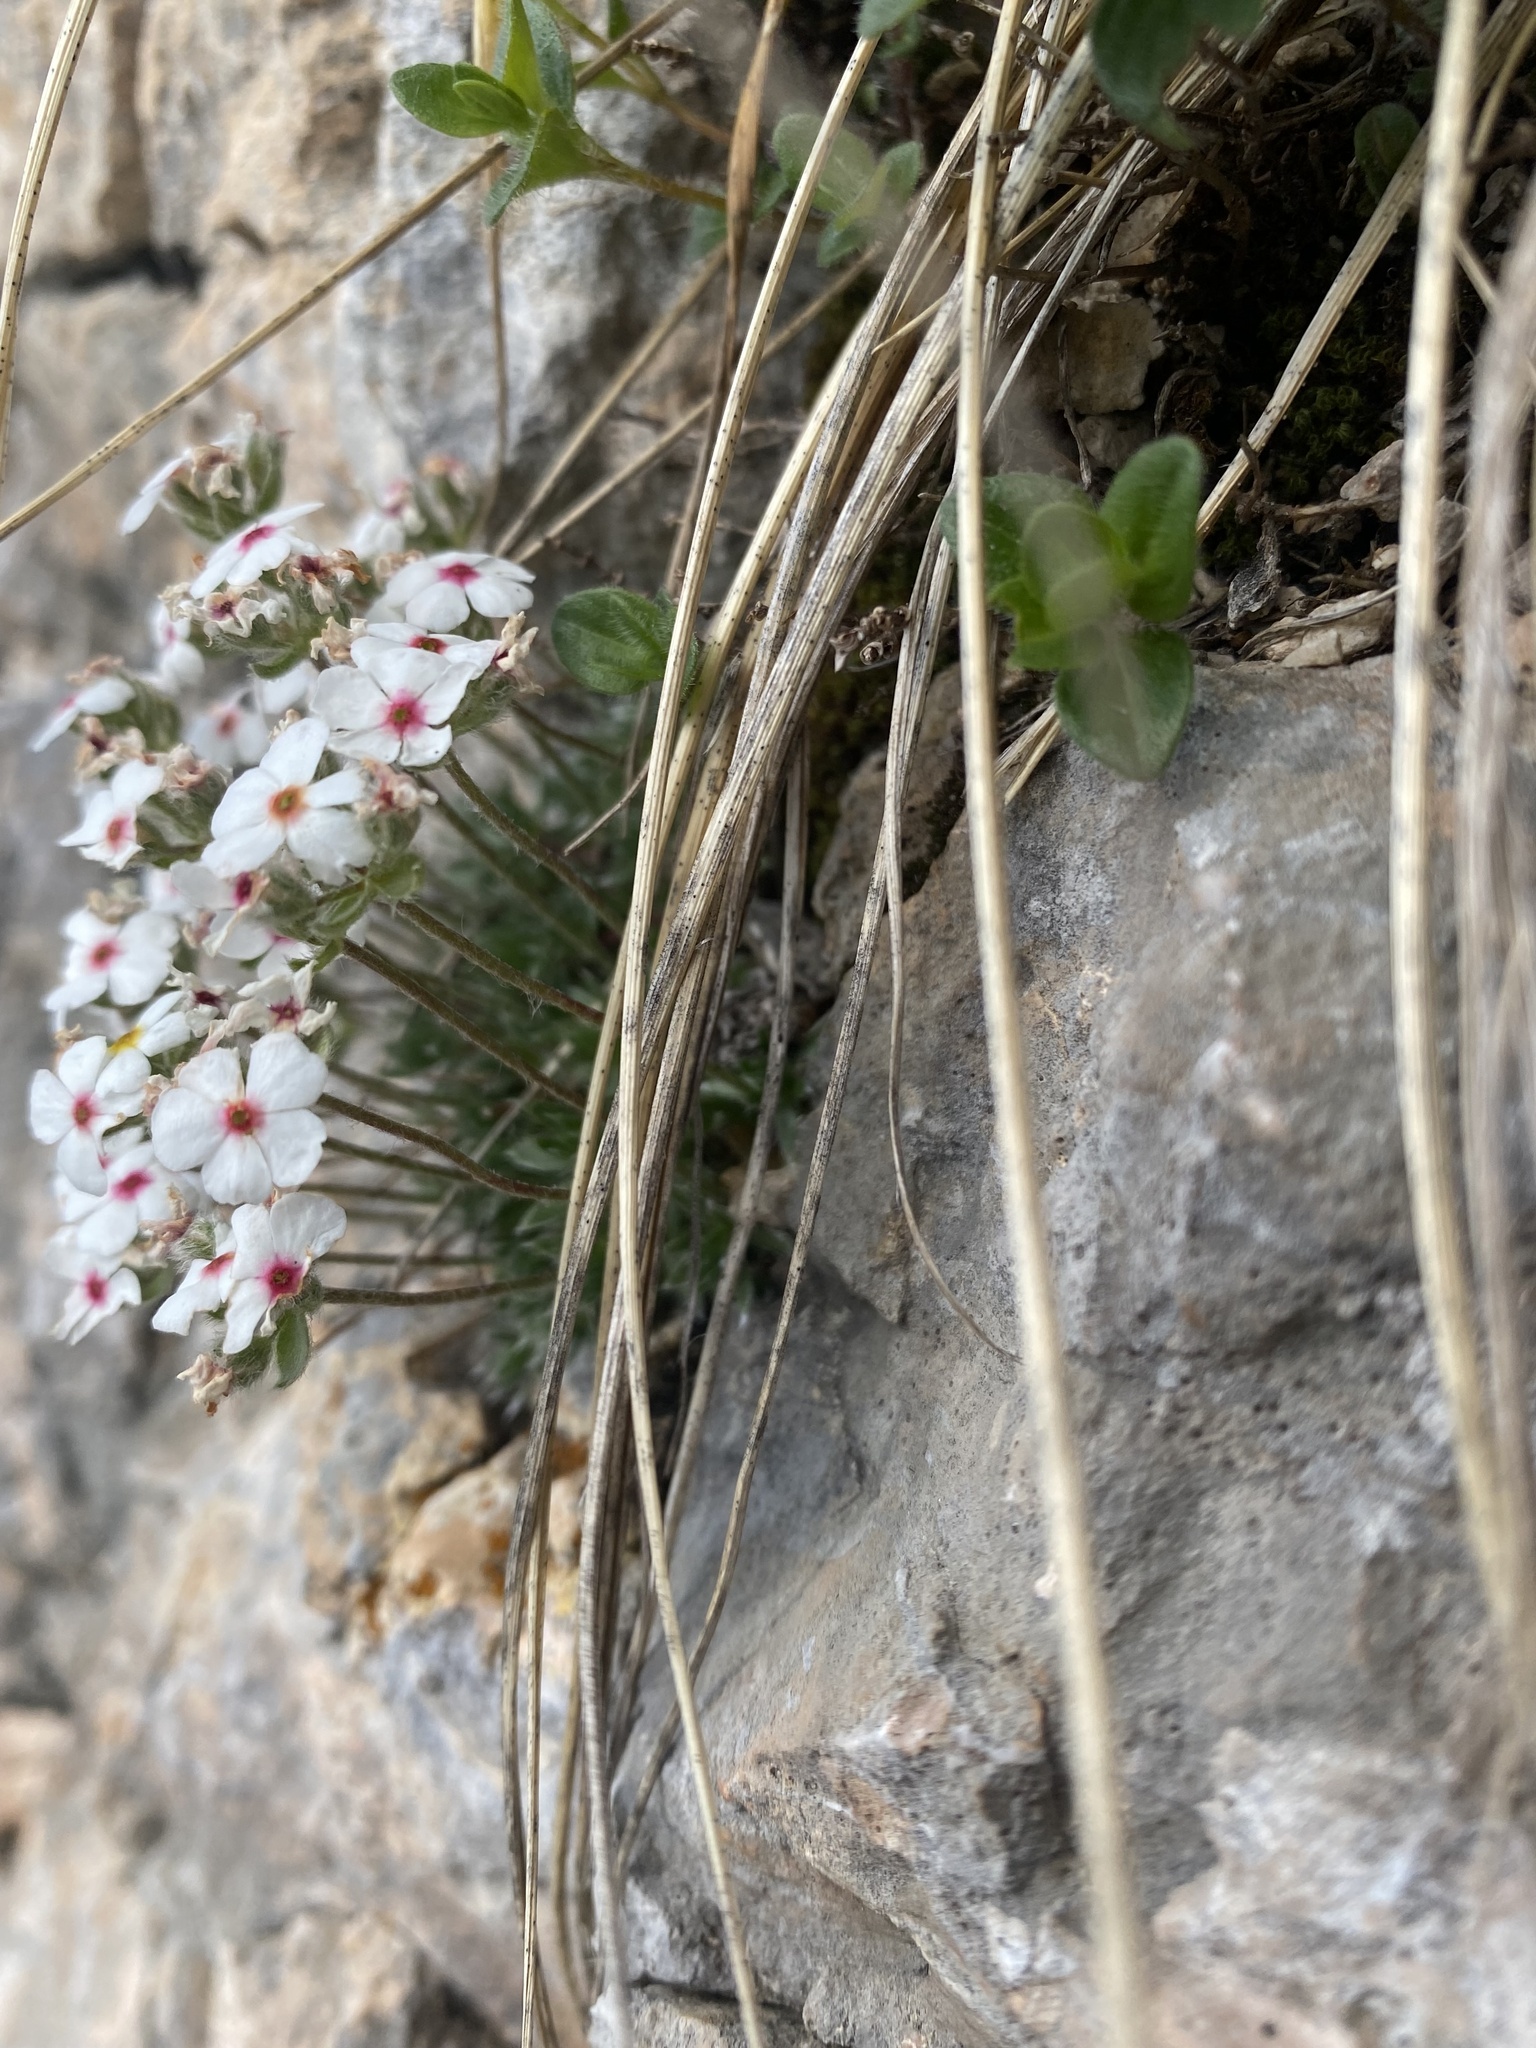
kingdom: Plantae
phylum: Tracheophyta
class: Magnoliopsida
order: Ericales
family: Primulaceae
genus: Androsace
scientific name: Androsace villosa
